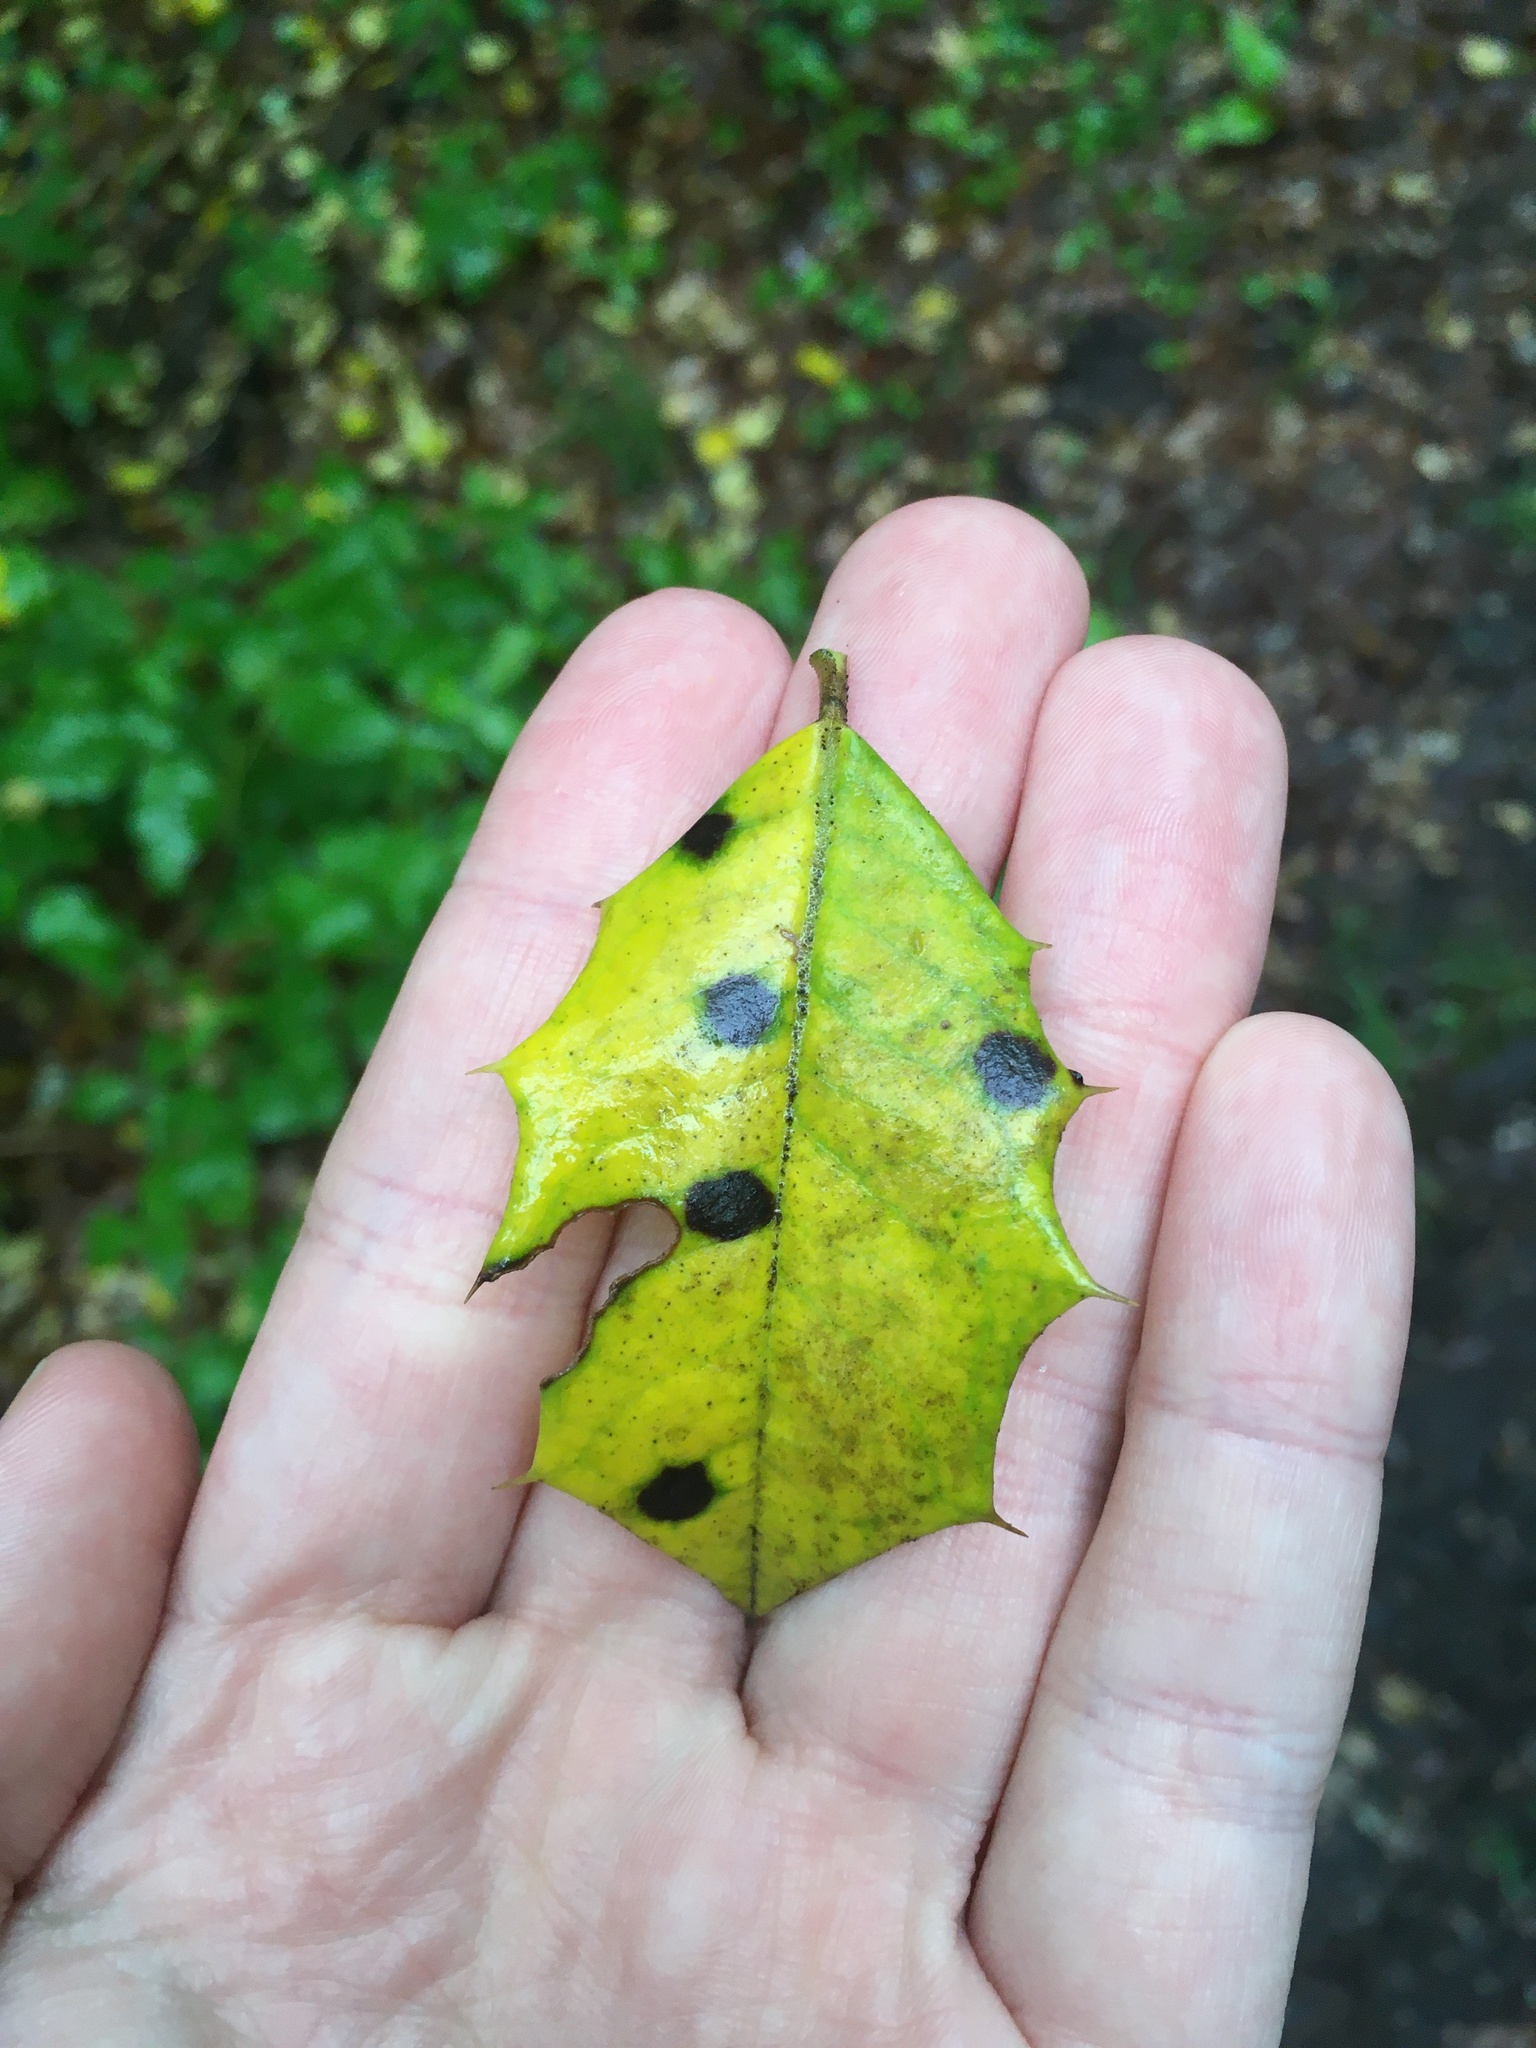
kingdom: Chromista
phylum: Oomycota
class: Peronosporea
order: Peronosporales
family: Peronosporaceae
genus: Phytophthora
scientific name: Phytophthora ilicis
